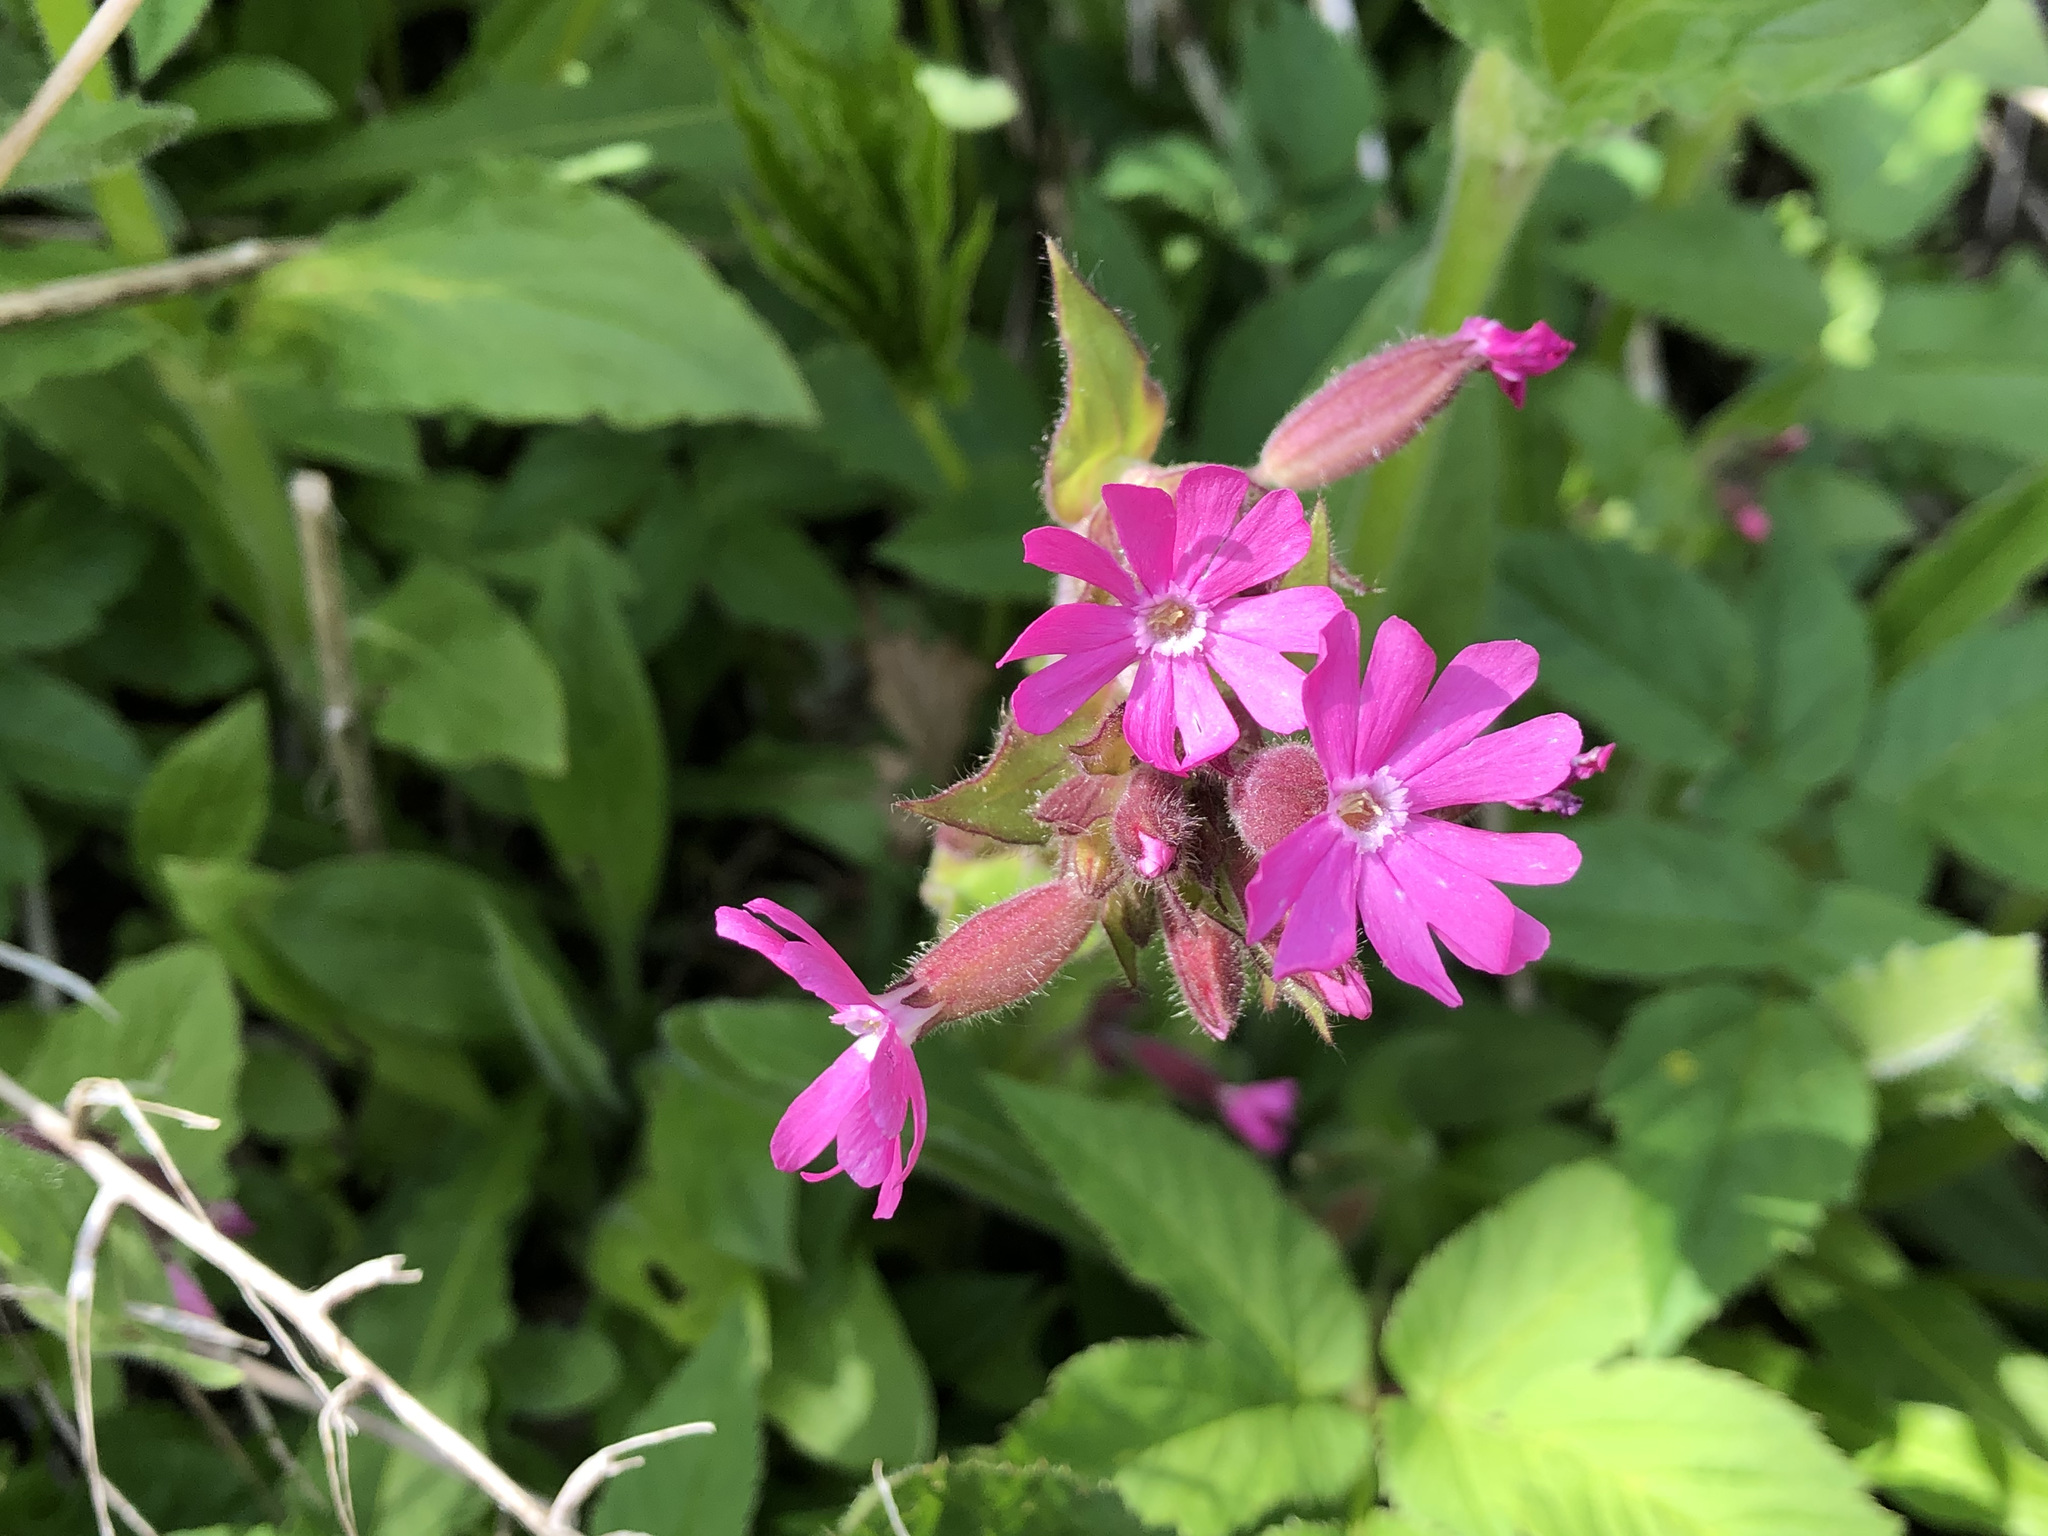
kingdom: Plantae
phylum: Tracheophyta
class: Magnoliopsida
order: Caryophyllales
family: Caryophyllaceae
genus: Silene
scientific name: Silene dioica
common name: Red campion
